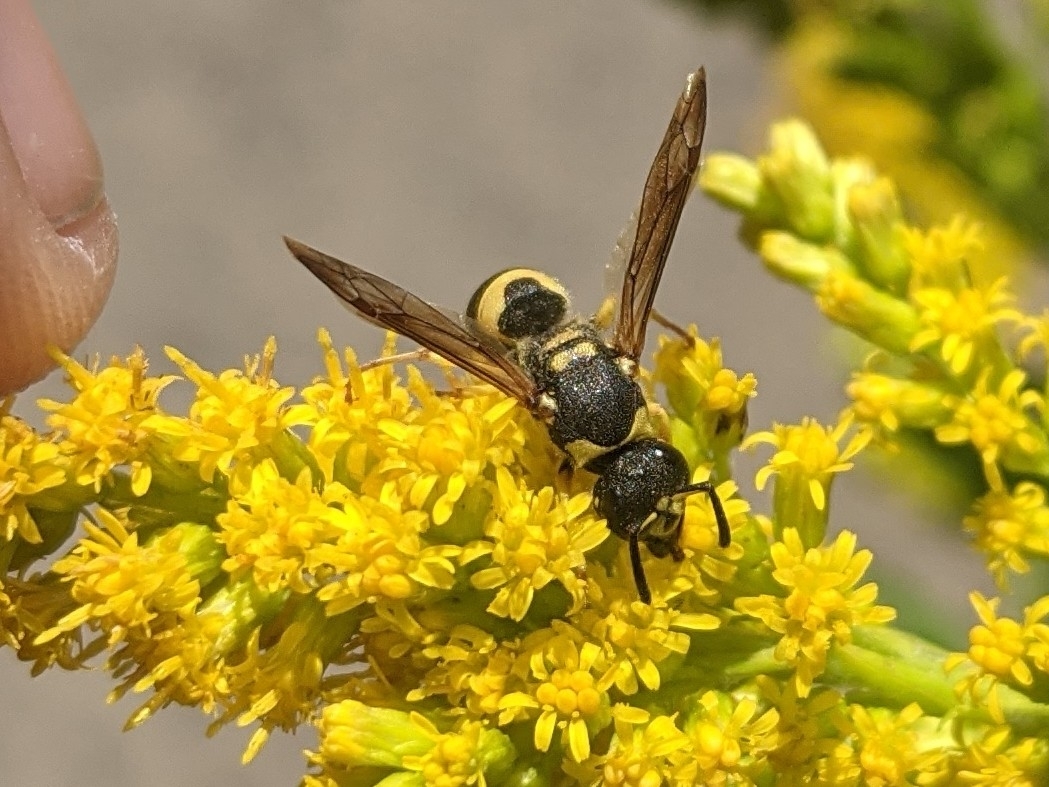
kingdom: Animalia
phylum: Arthropoda
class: Insecta
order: Hymenoptera
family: Vespidae
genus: Ancistrocerus
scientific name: Ancistrocerus gazella
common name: European tube wasp
